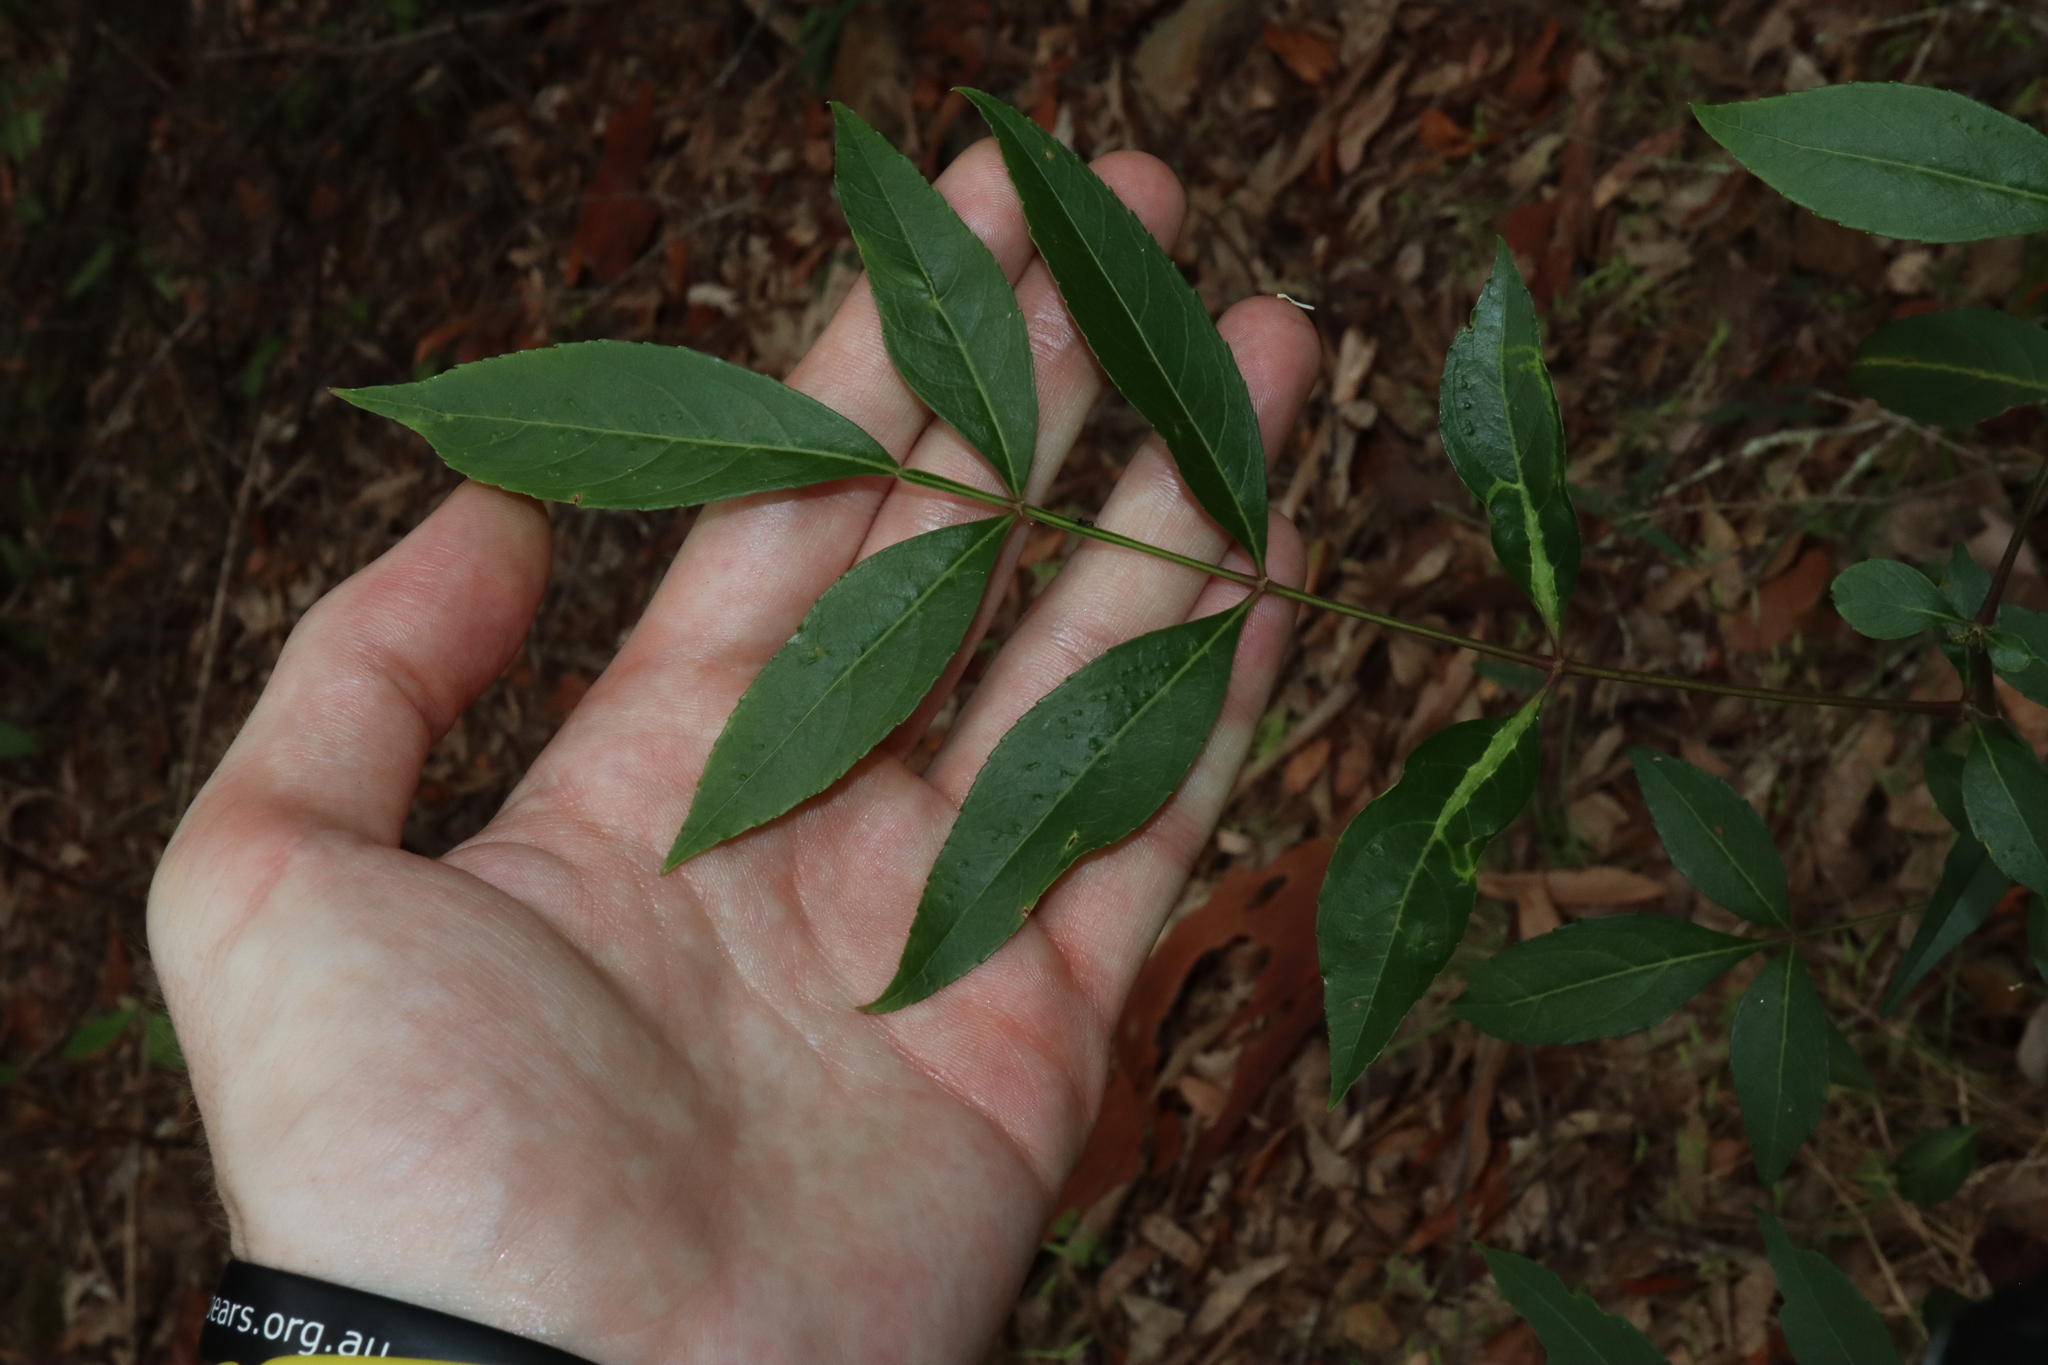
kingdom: Plantae
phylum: Tracheophyta
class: Magnoliopsida
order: Apiales
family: Araliaceae
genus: Polyscias
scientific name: Polyscias sambucifolia
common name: Elderberry-ash
